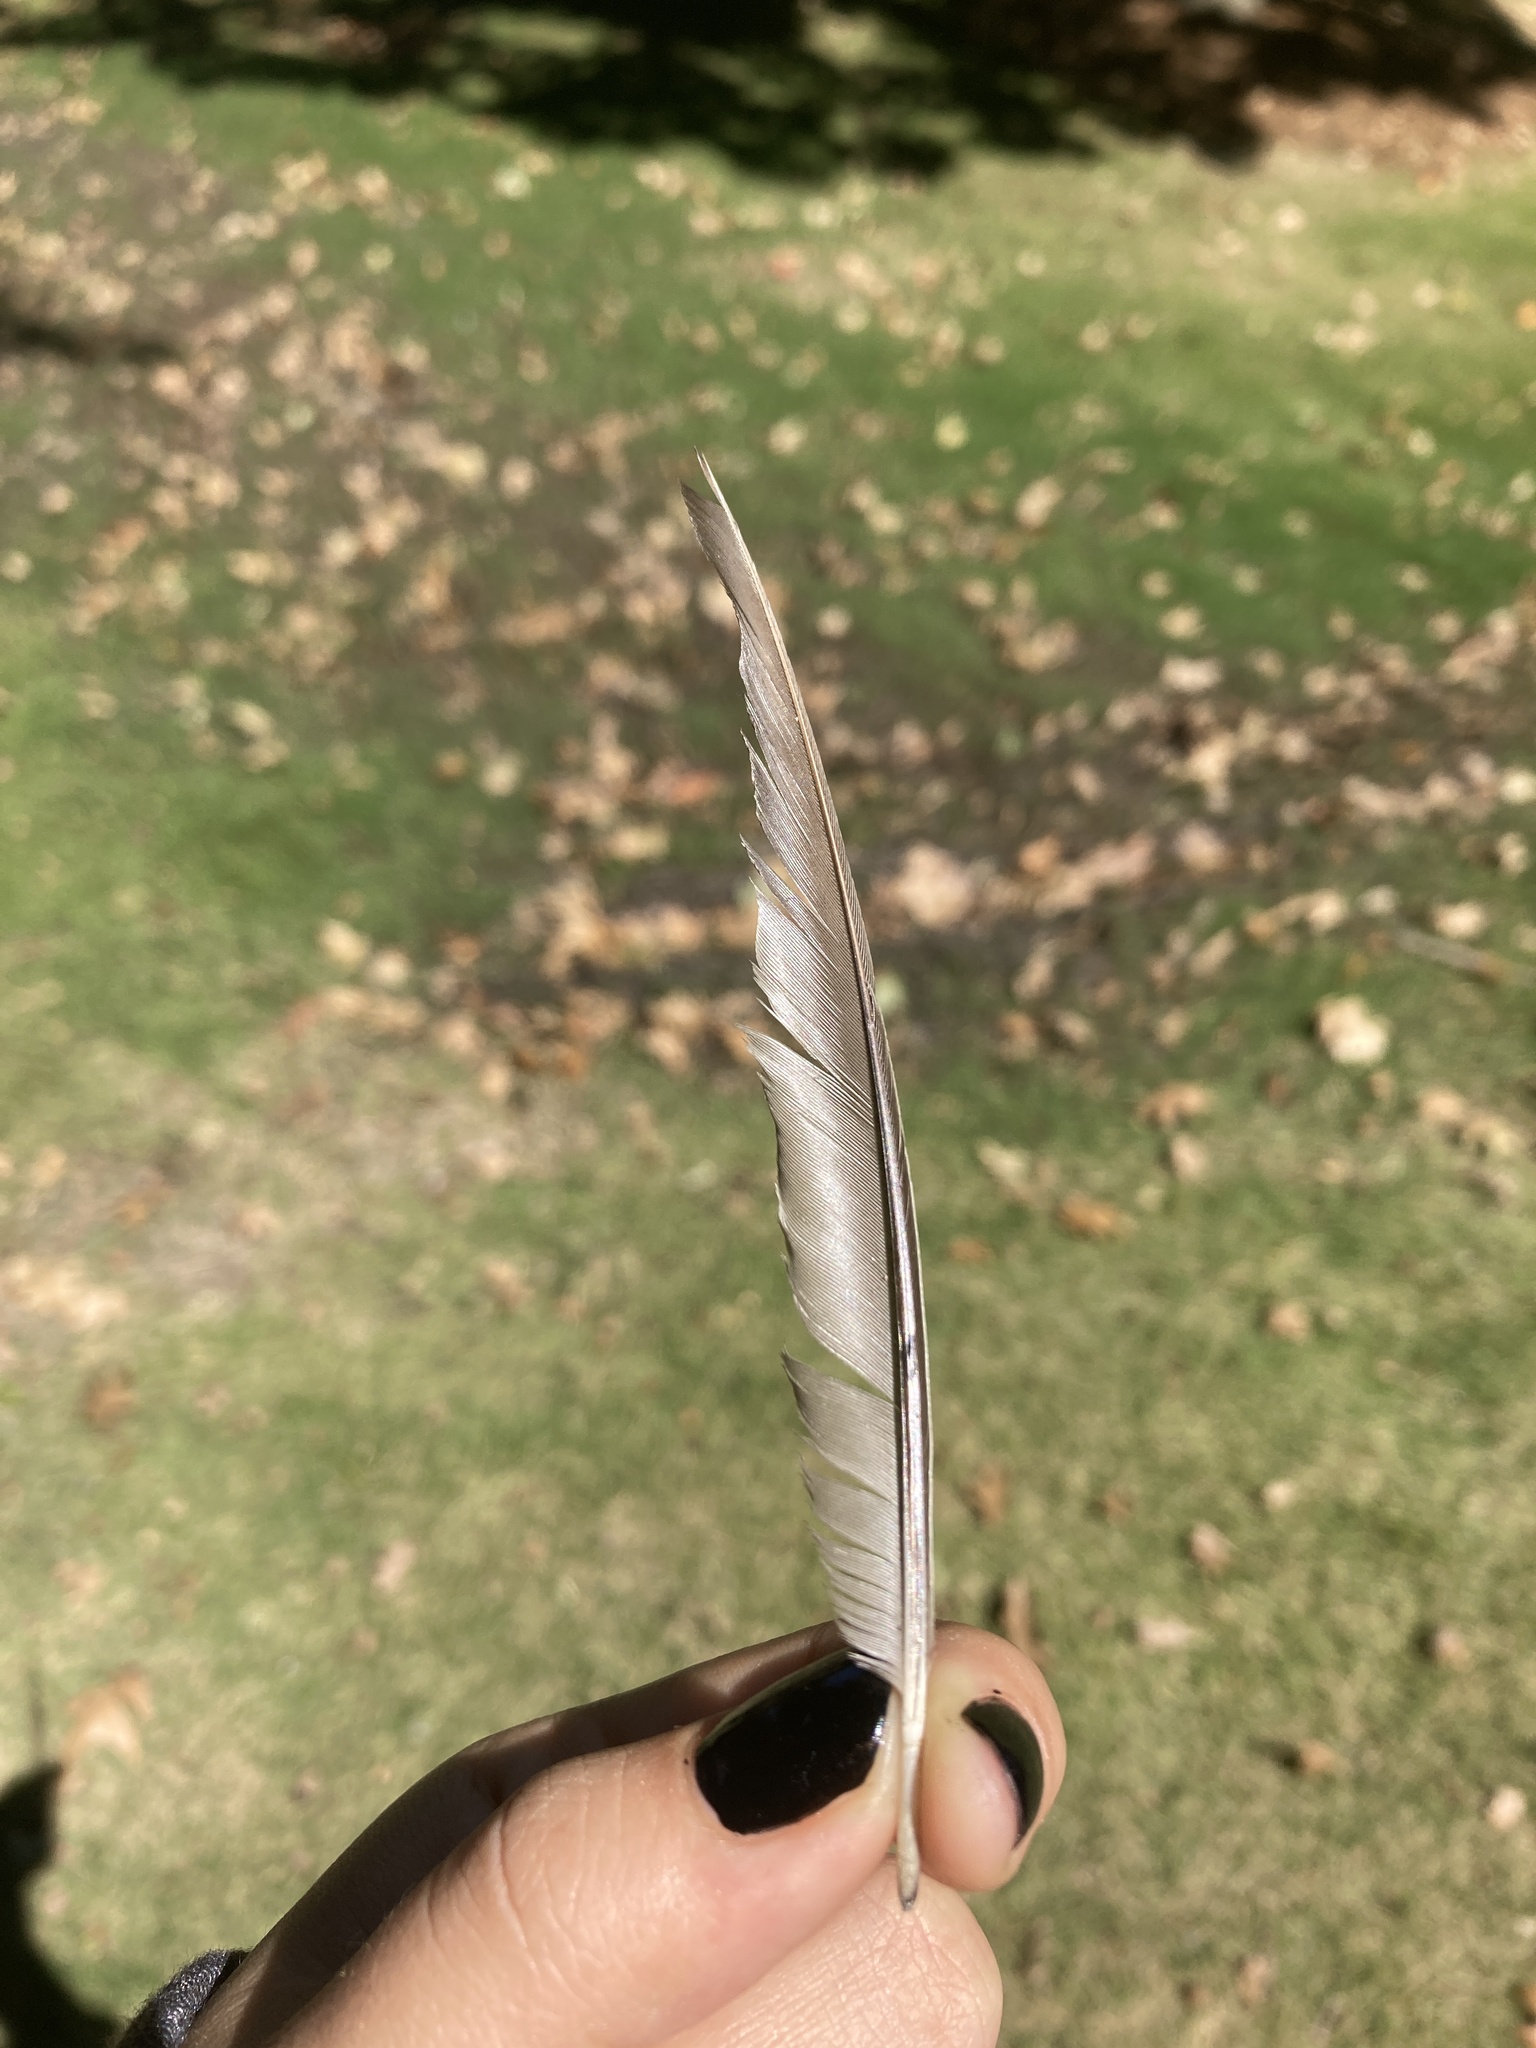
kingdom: Animalia
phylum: Chordata
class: Aves
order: Passeriformes
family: Turdidae
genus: Turdus
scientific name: Turdus migratorius
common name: American robin
